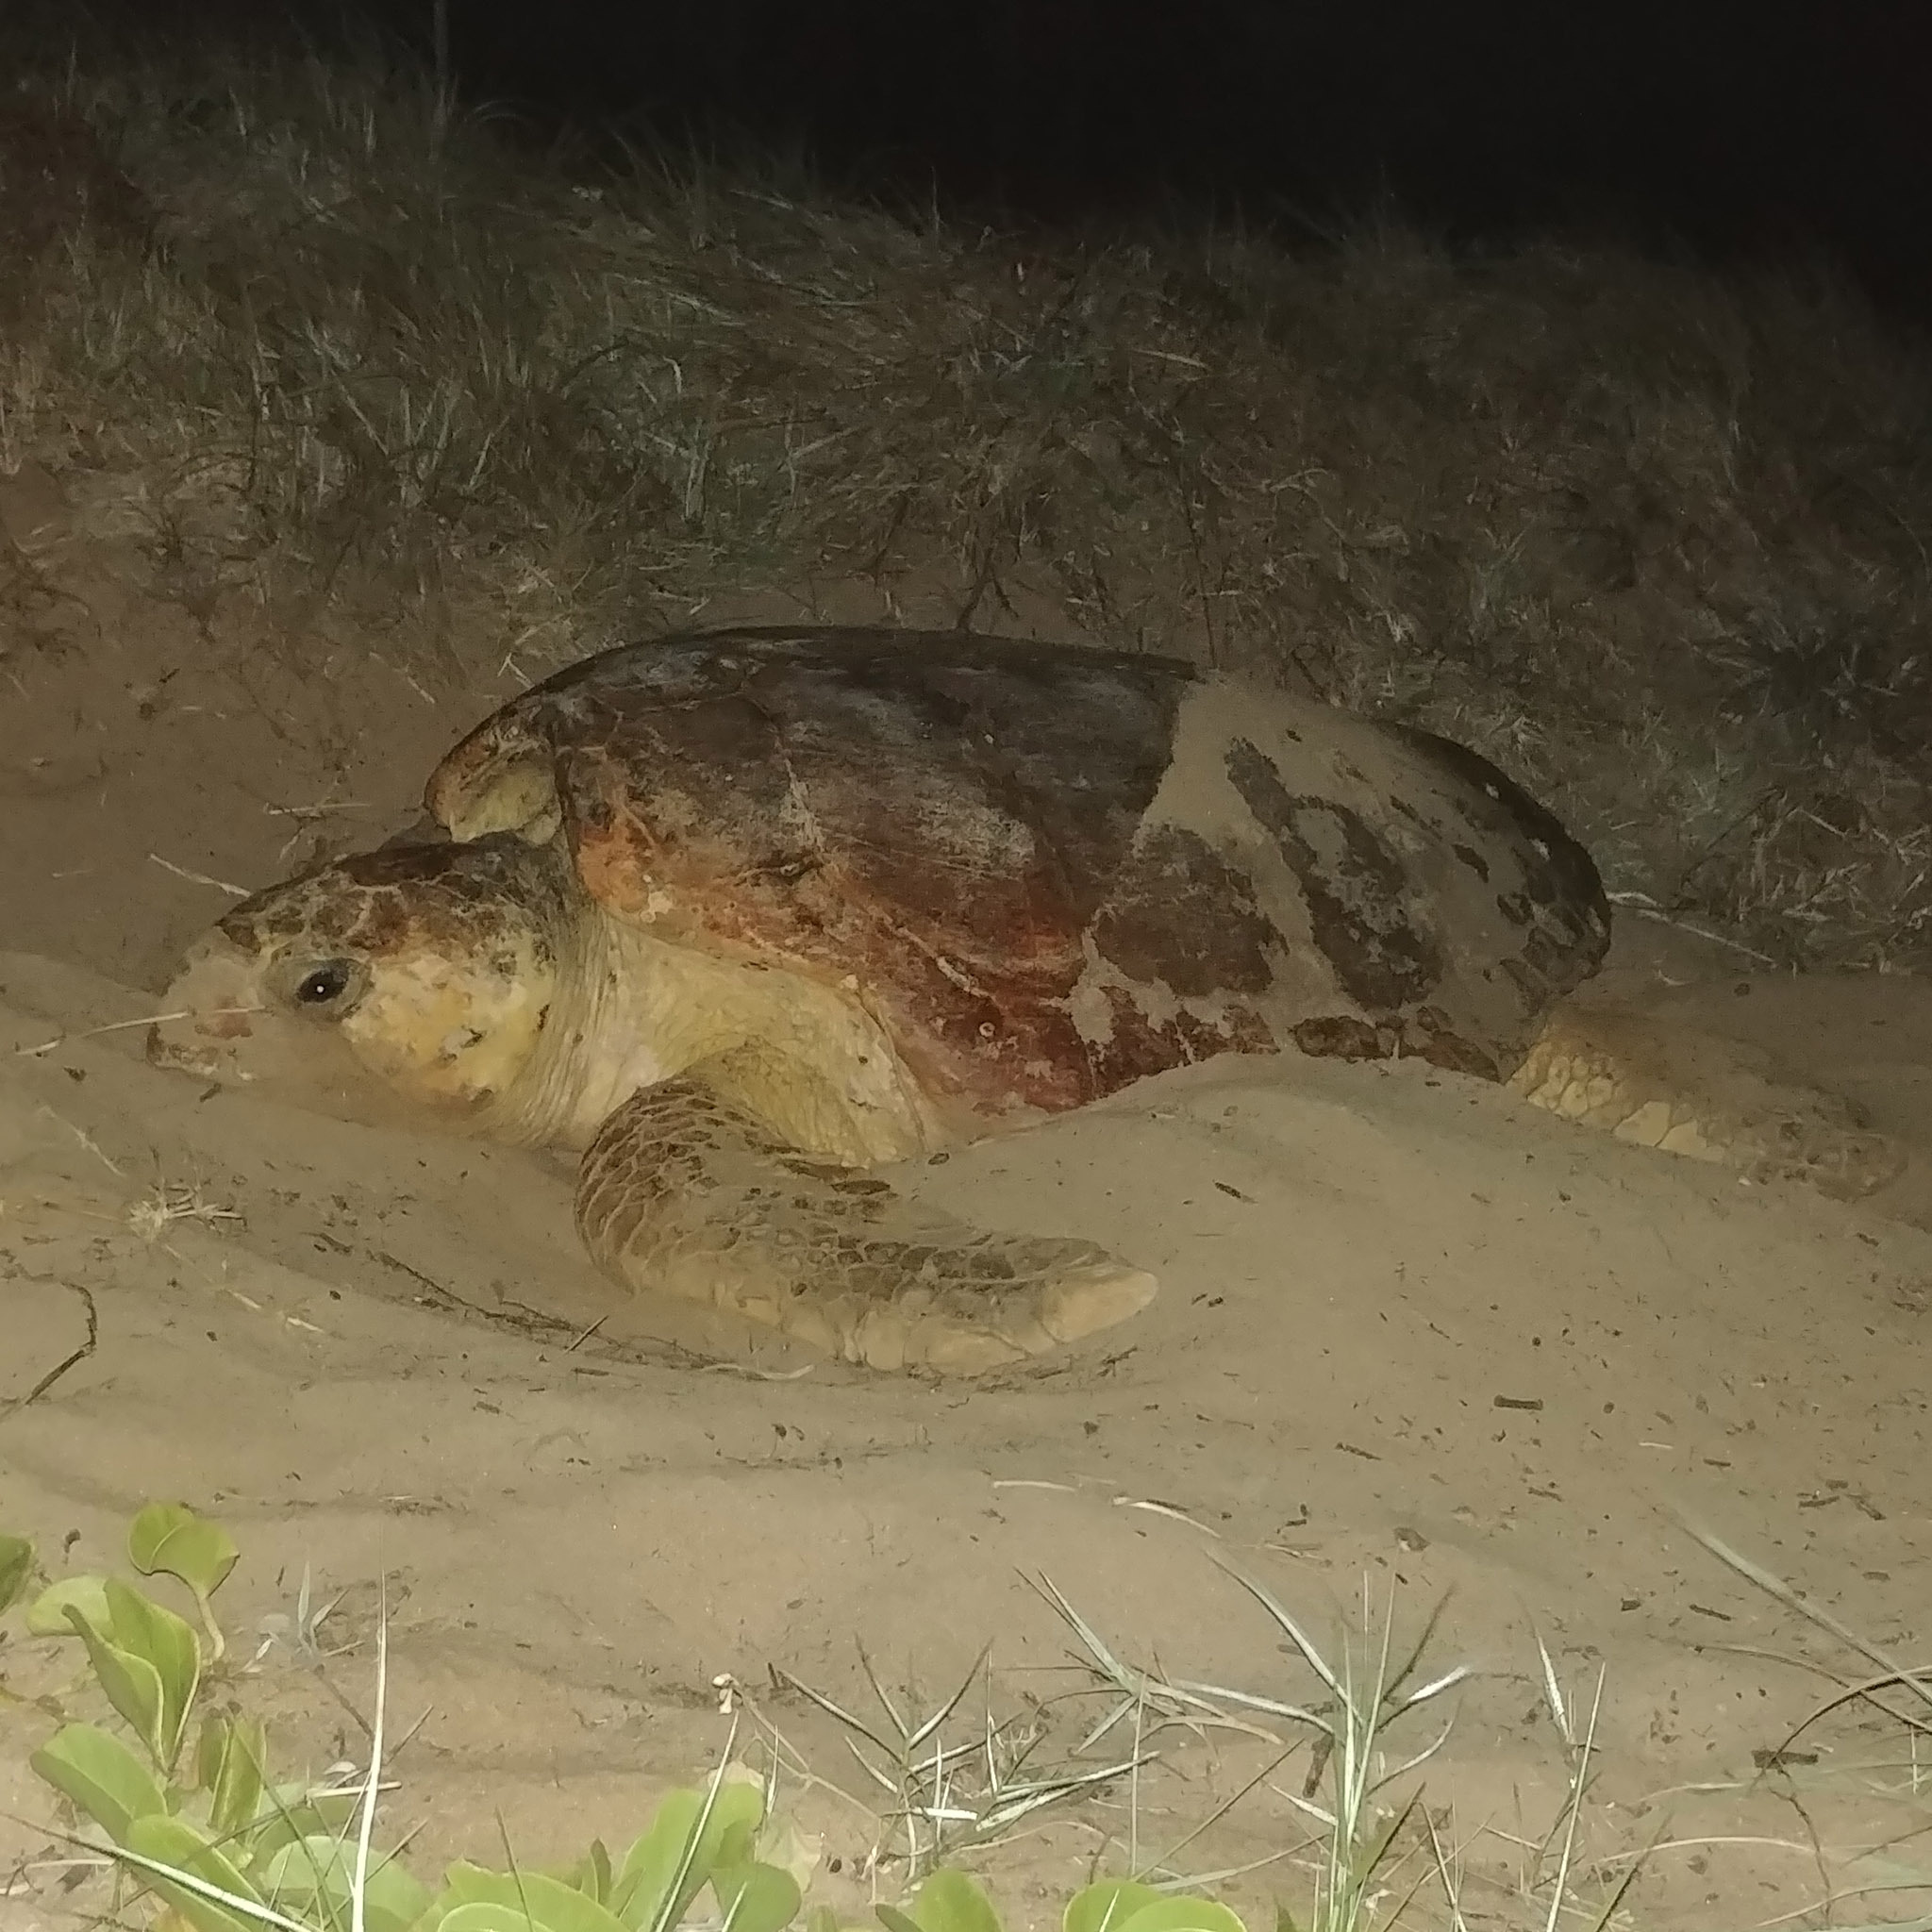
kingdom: Animalia
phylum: Chordata
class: Testudines
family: Cheloniidae
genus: Caretta
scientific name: Caretta caretta
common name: Loggerhead sea turtle
